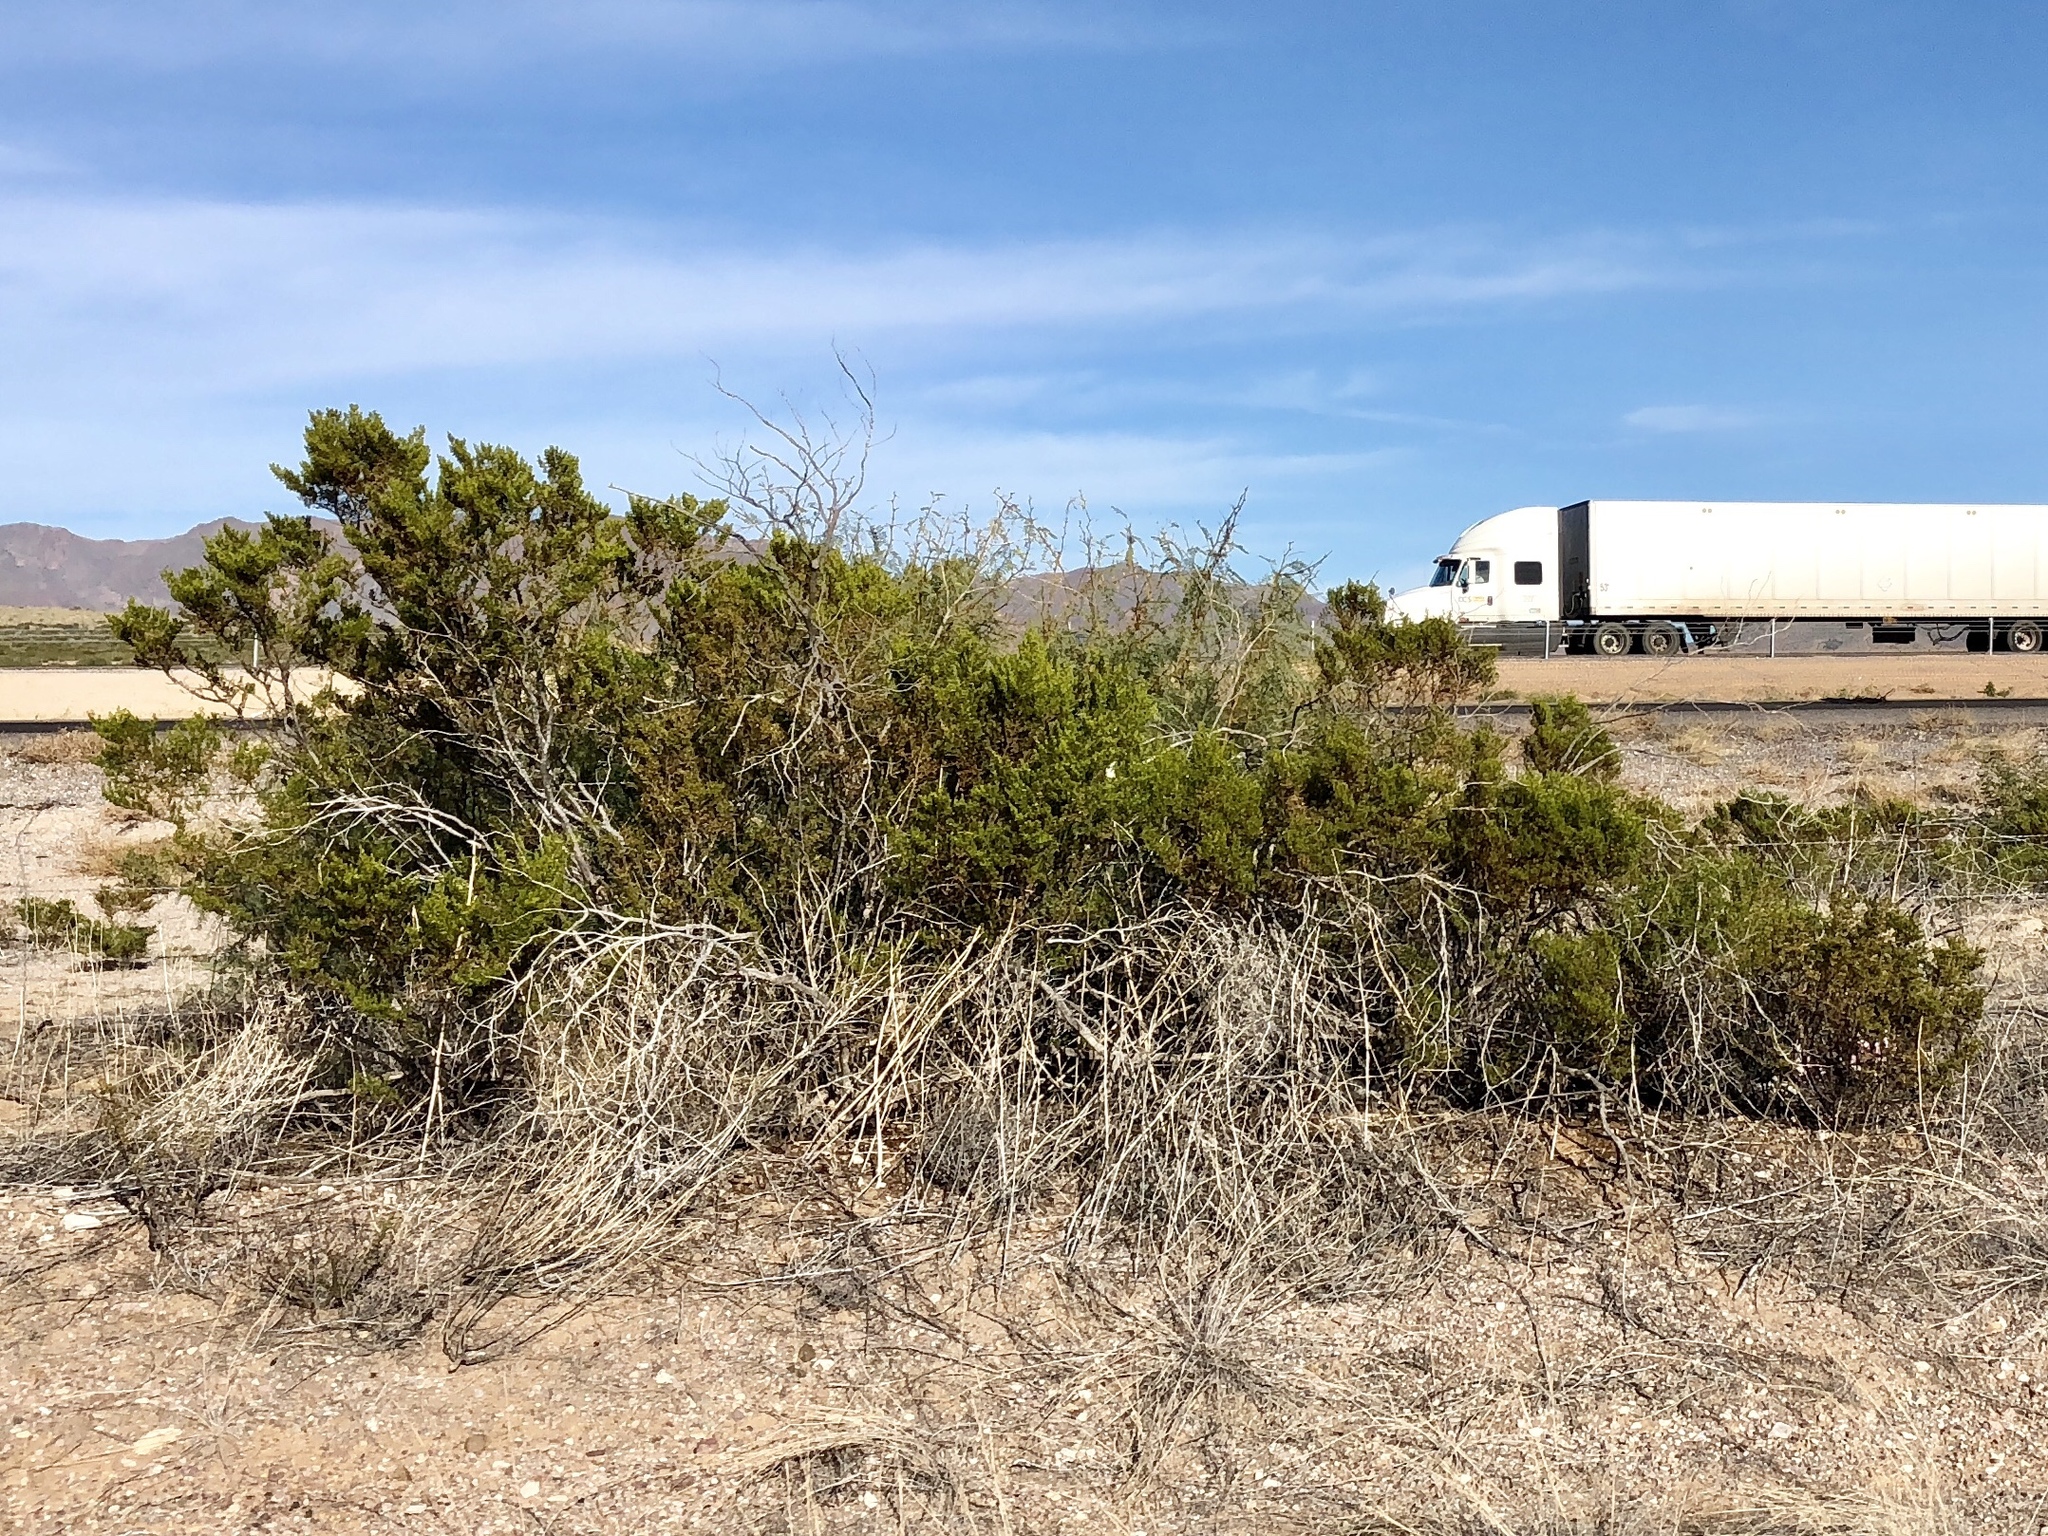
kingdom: Plantae
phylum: Tracheophyta
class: Magnoliopsida
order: Zygophyllales
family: Zygophyllaceae
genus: Larrea
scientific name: Larrea tridentata
